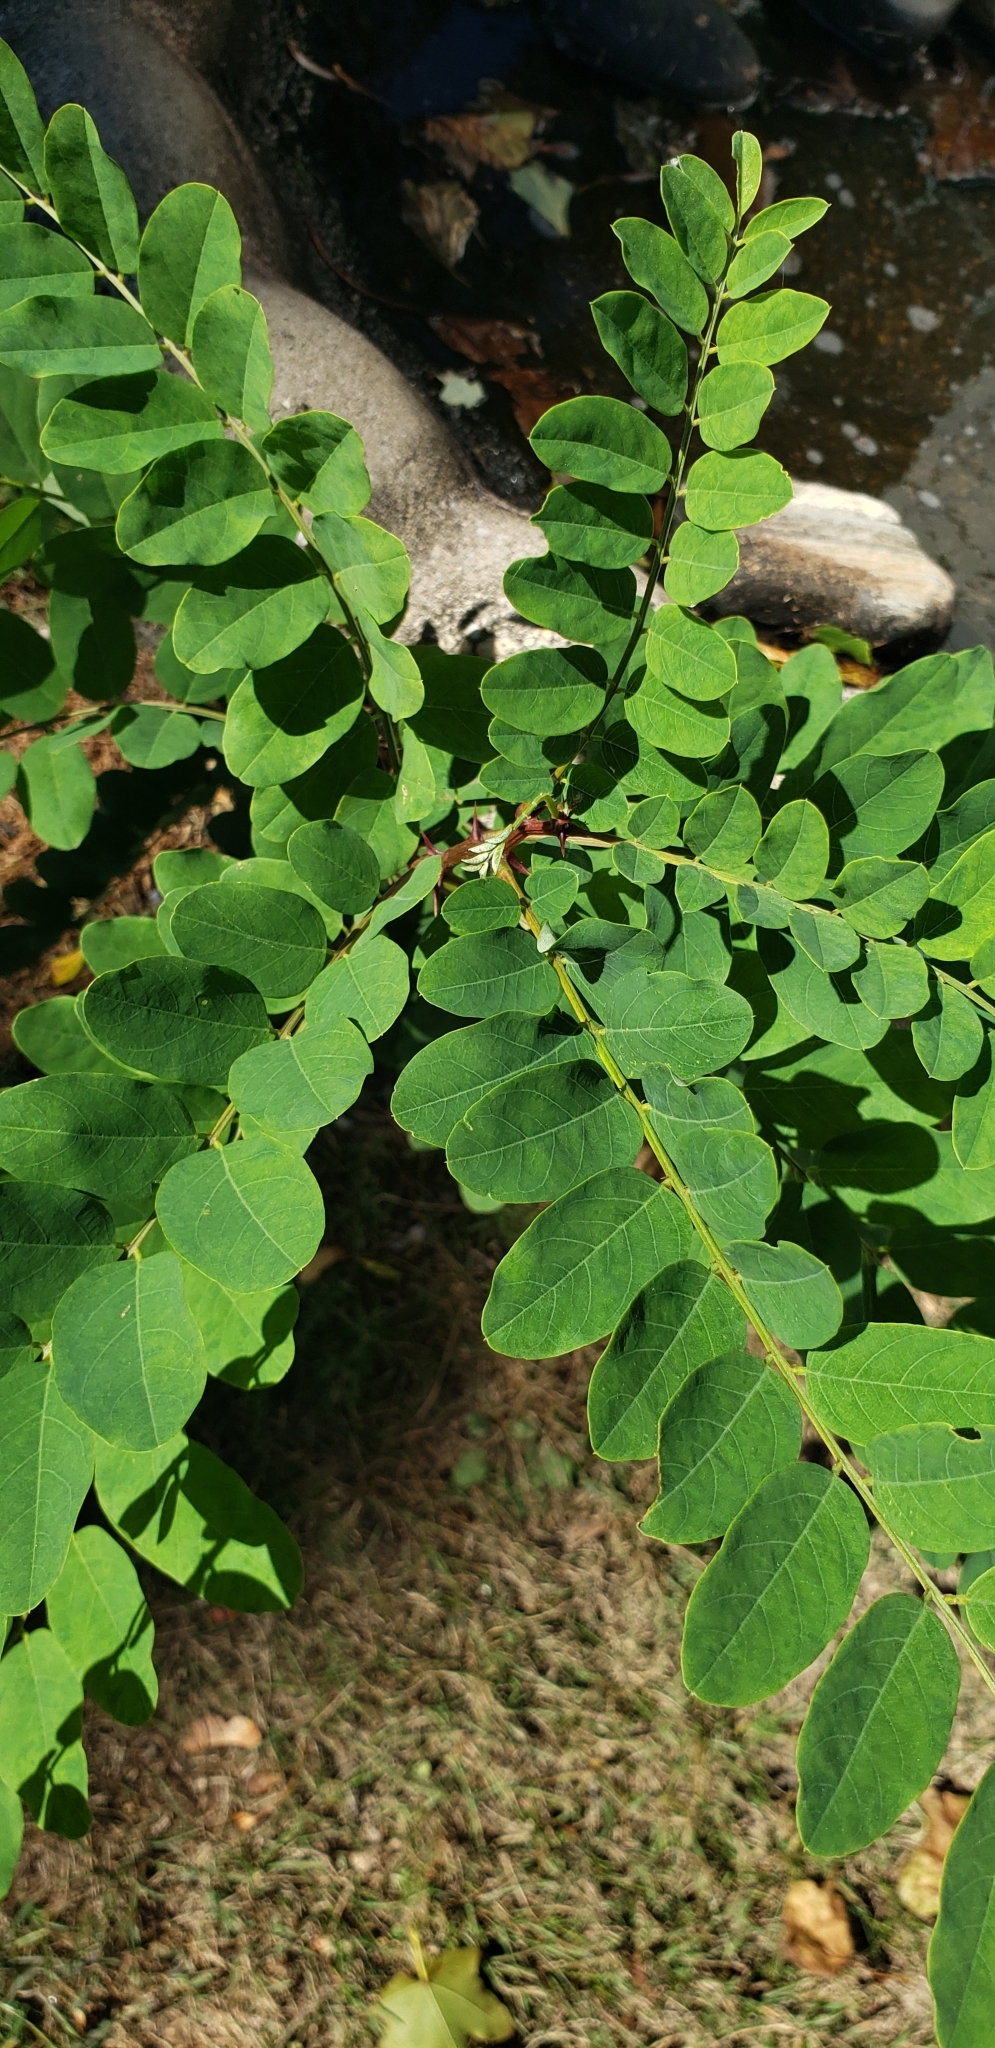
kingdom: Plantae
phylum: Tracheophyta
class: Magnoliopsida
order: Fabales
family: Fabaceae
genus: Robinia
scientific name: Robinia pseudoacacia
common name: Black locust
